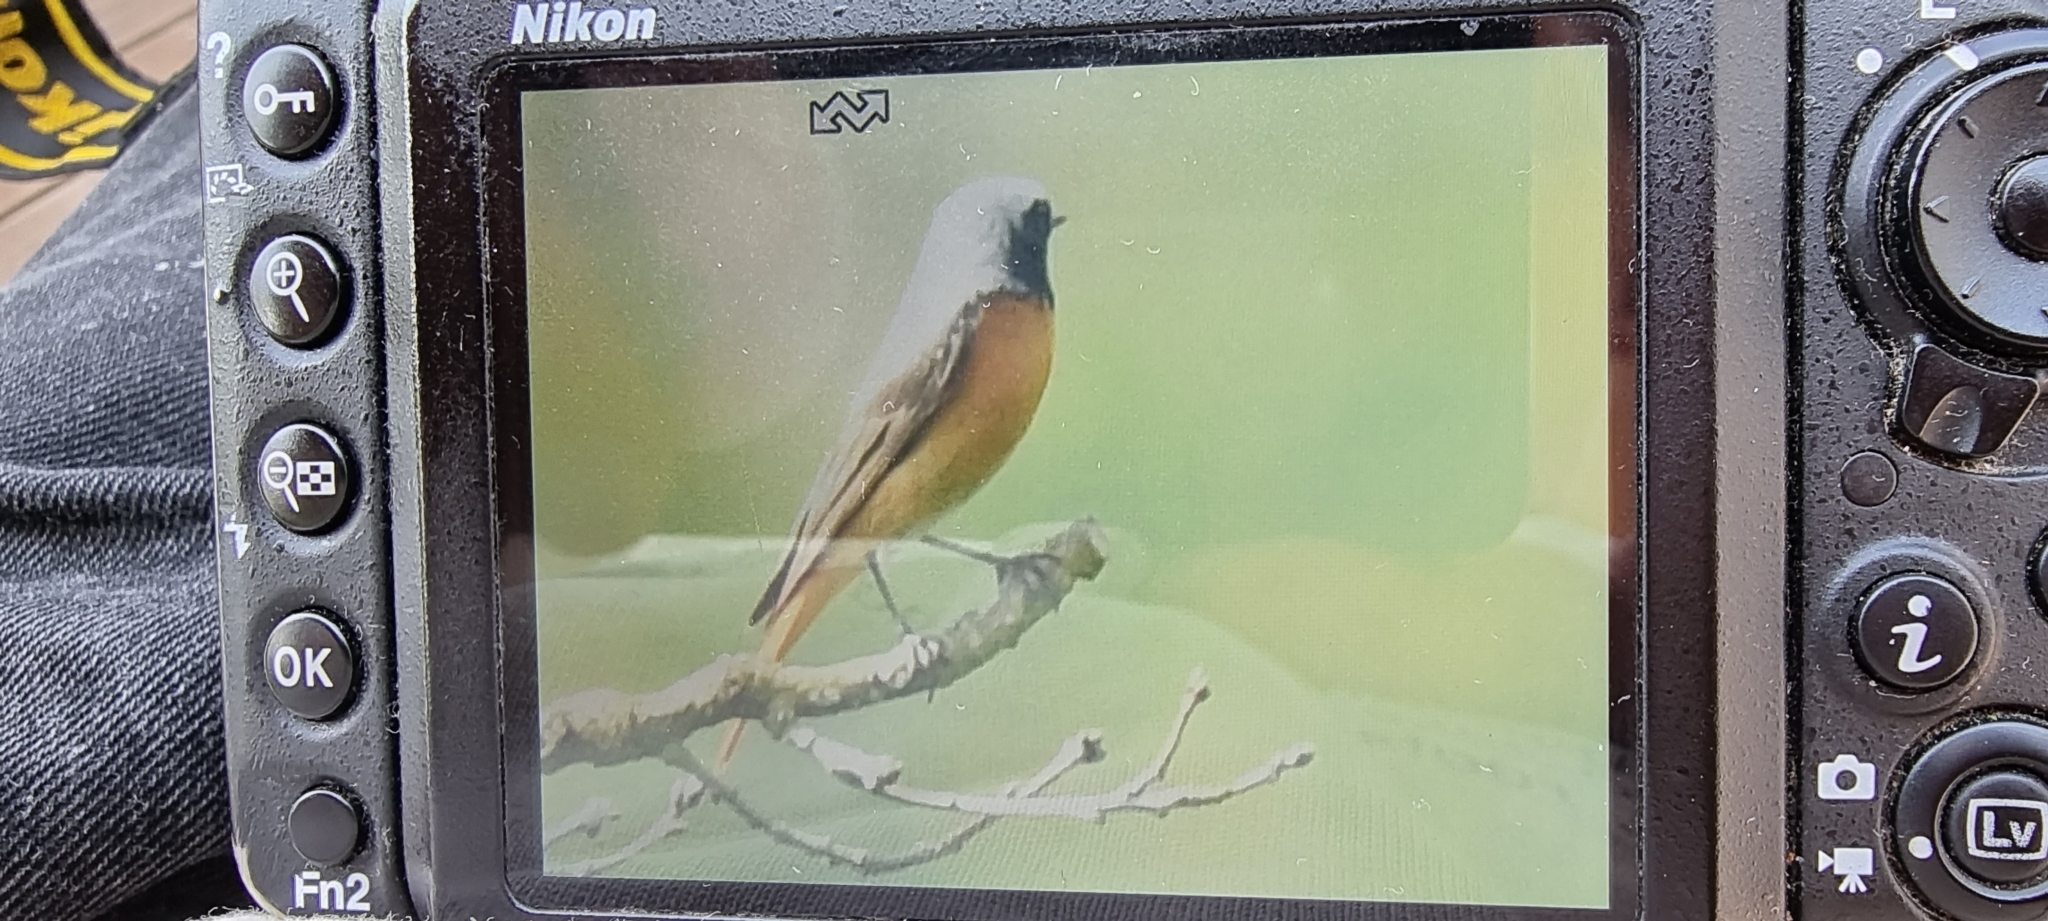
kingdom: Animalia
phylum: Chordata
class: Aves
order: Passeriformes
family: Muscicapidae
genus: Phoenicurus
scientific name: Phoenicurus phoenicurus
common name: Common redstart
